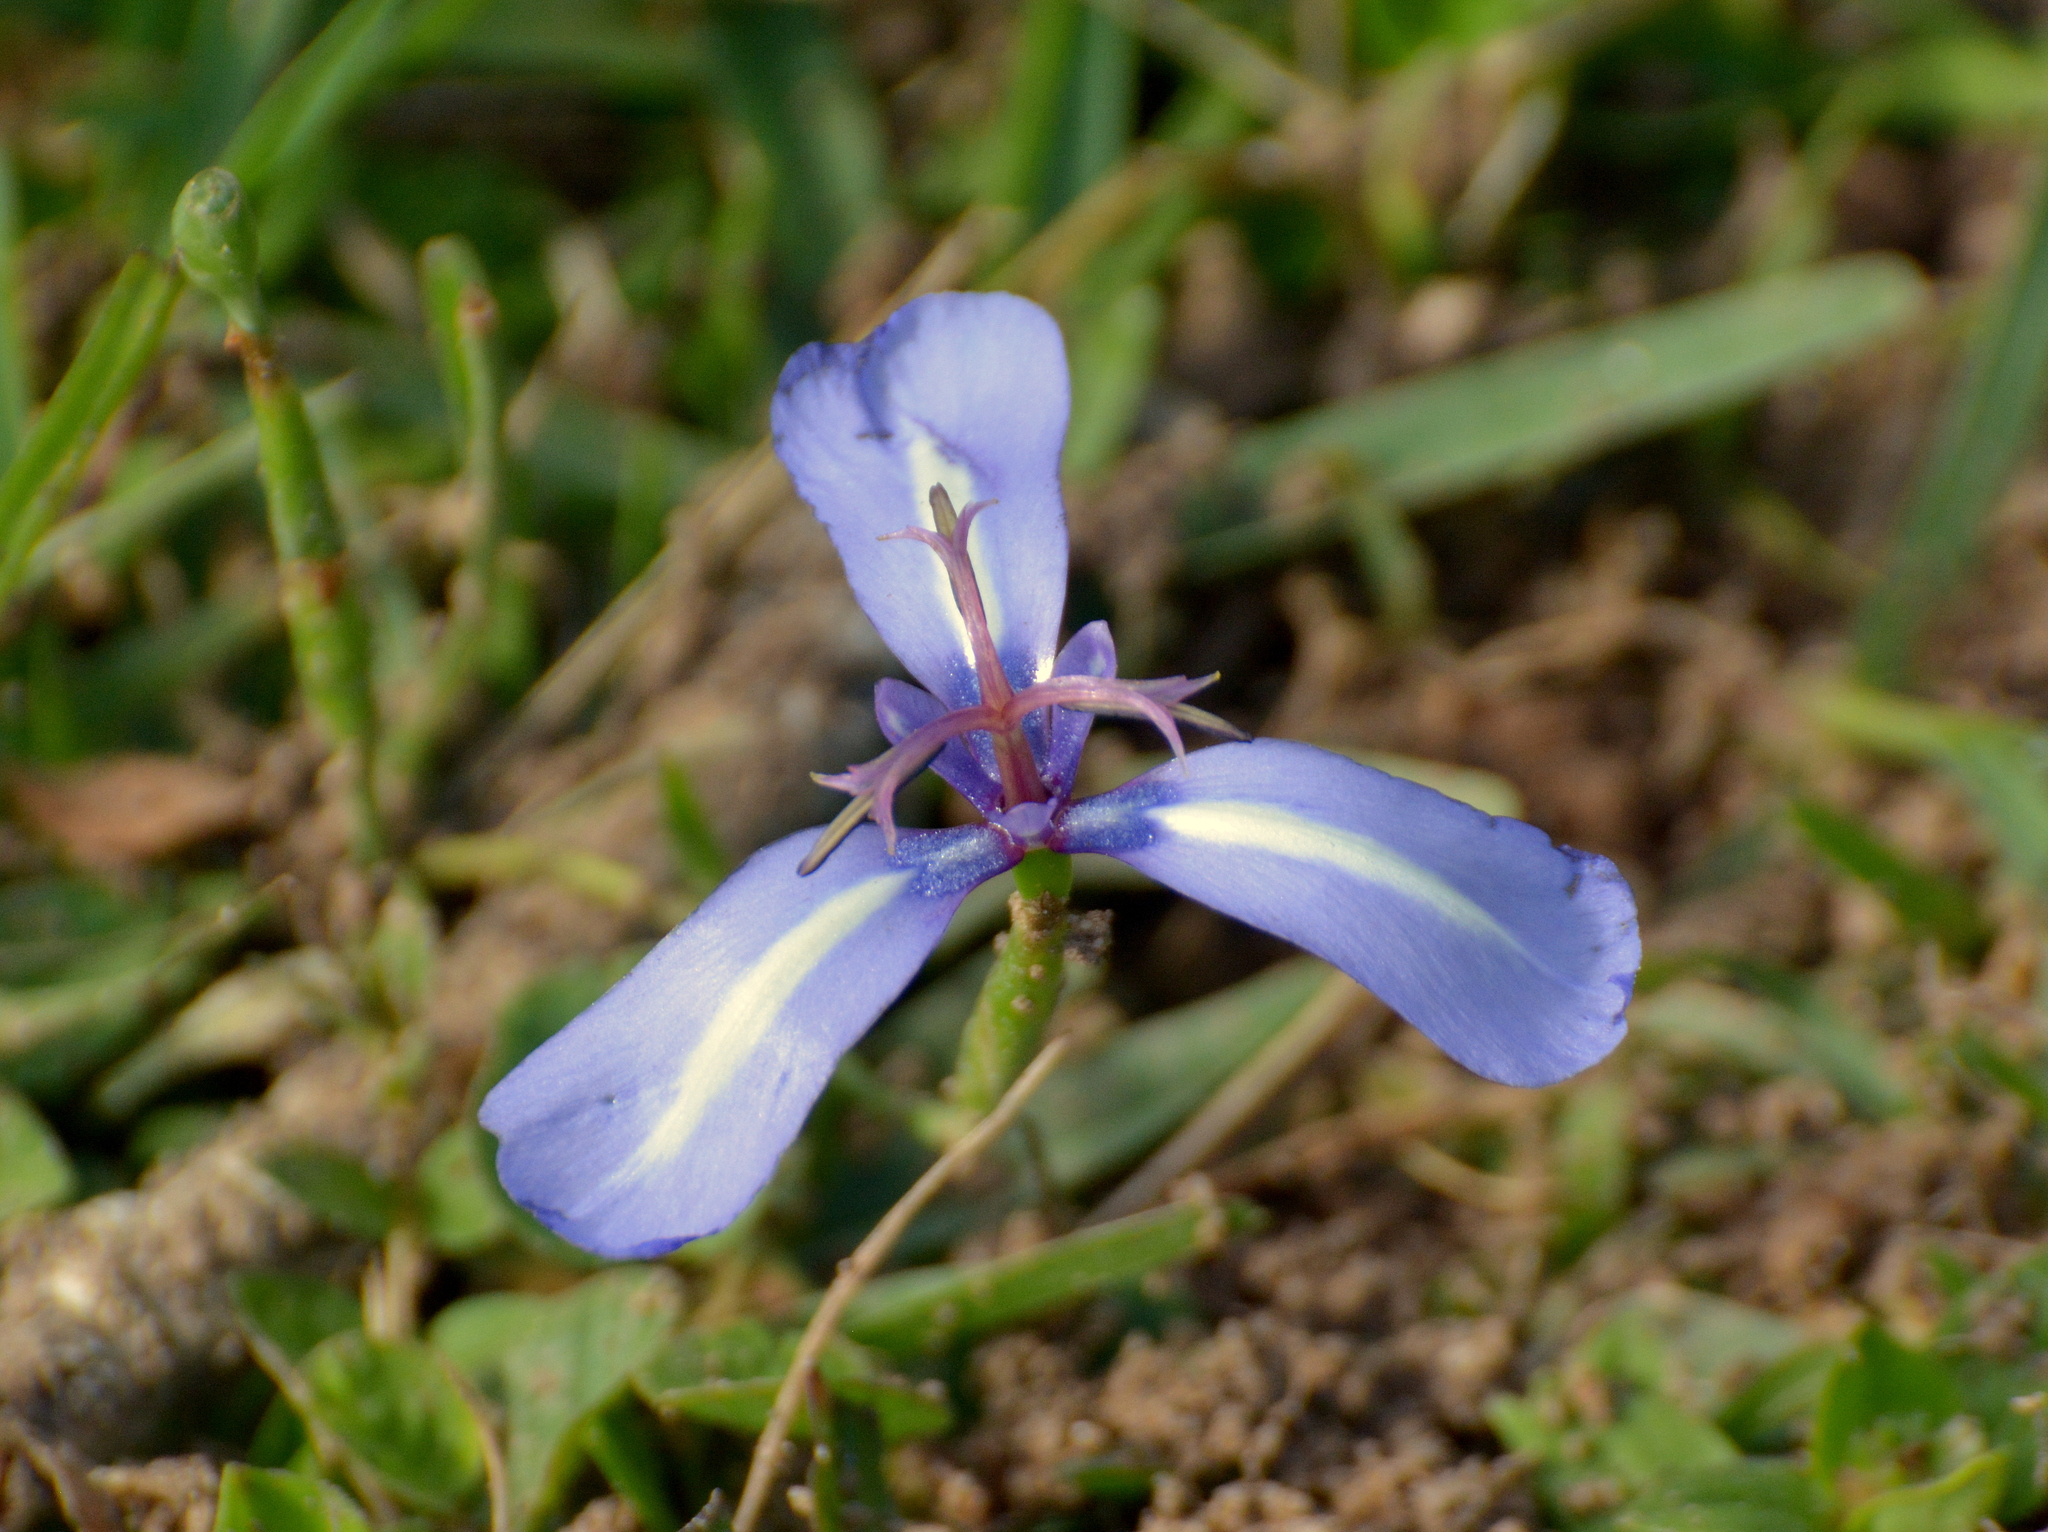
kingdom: Plantae
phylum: Tracheophyta
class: Liliopsida
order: Asparagales
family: Iridaceae
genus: Herbertia
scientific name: Herbertia pulchella
